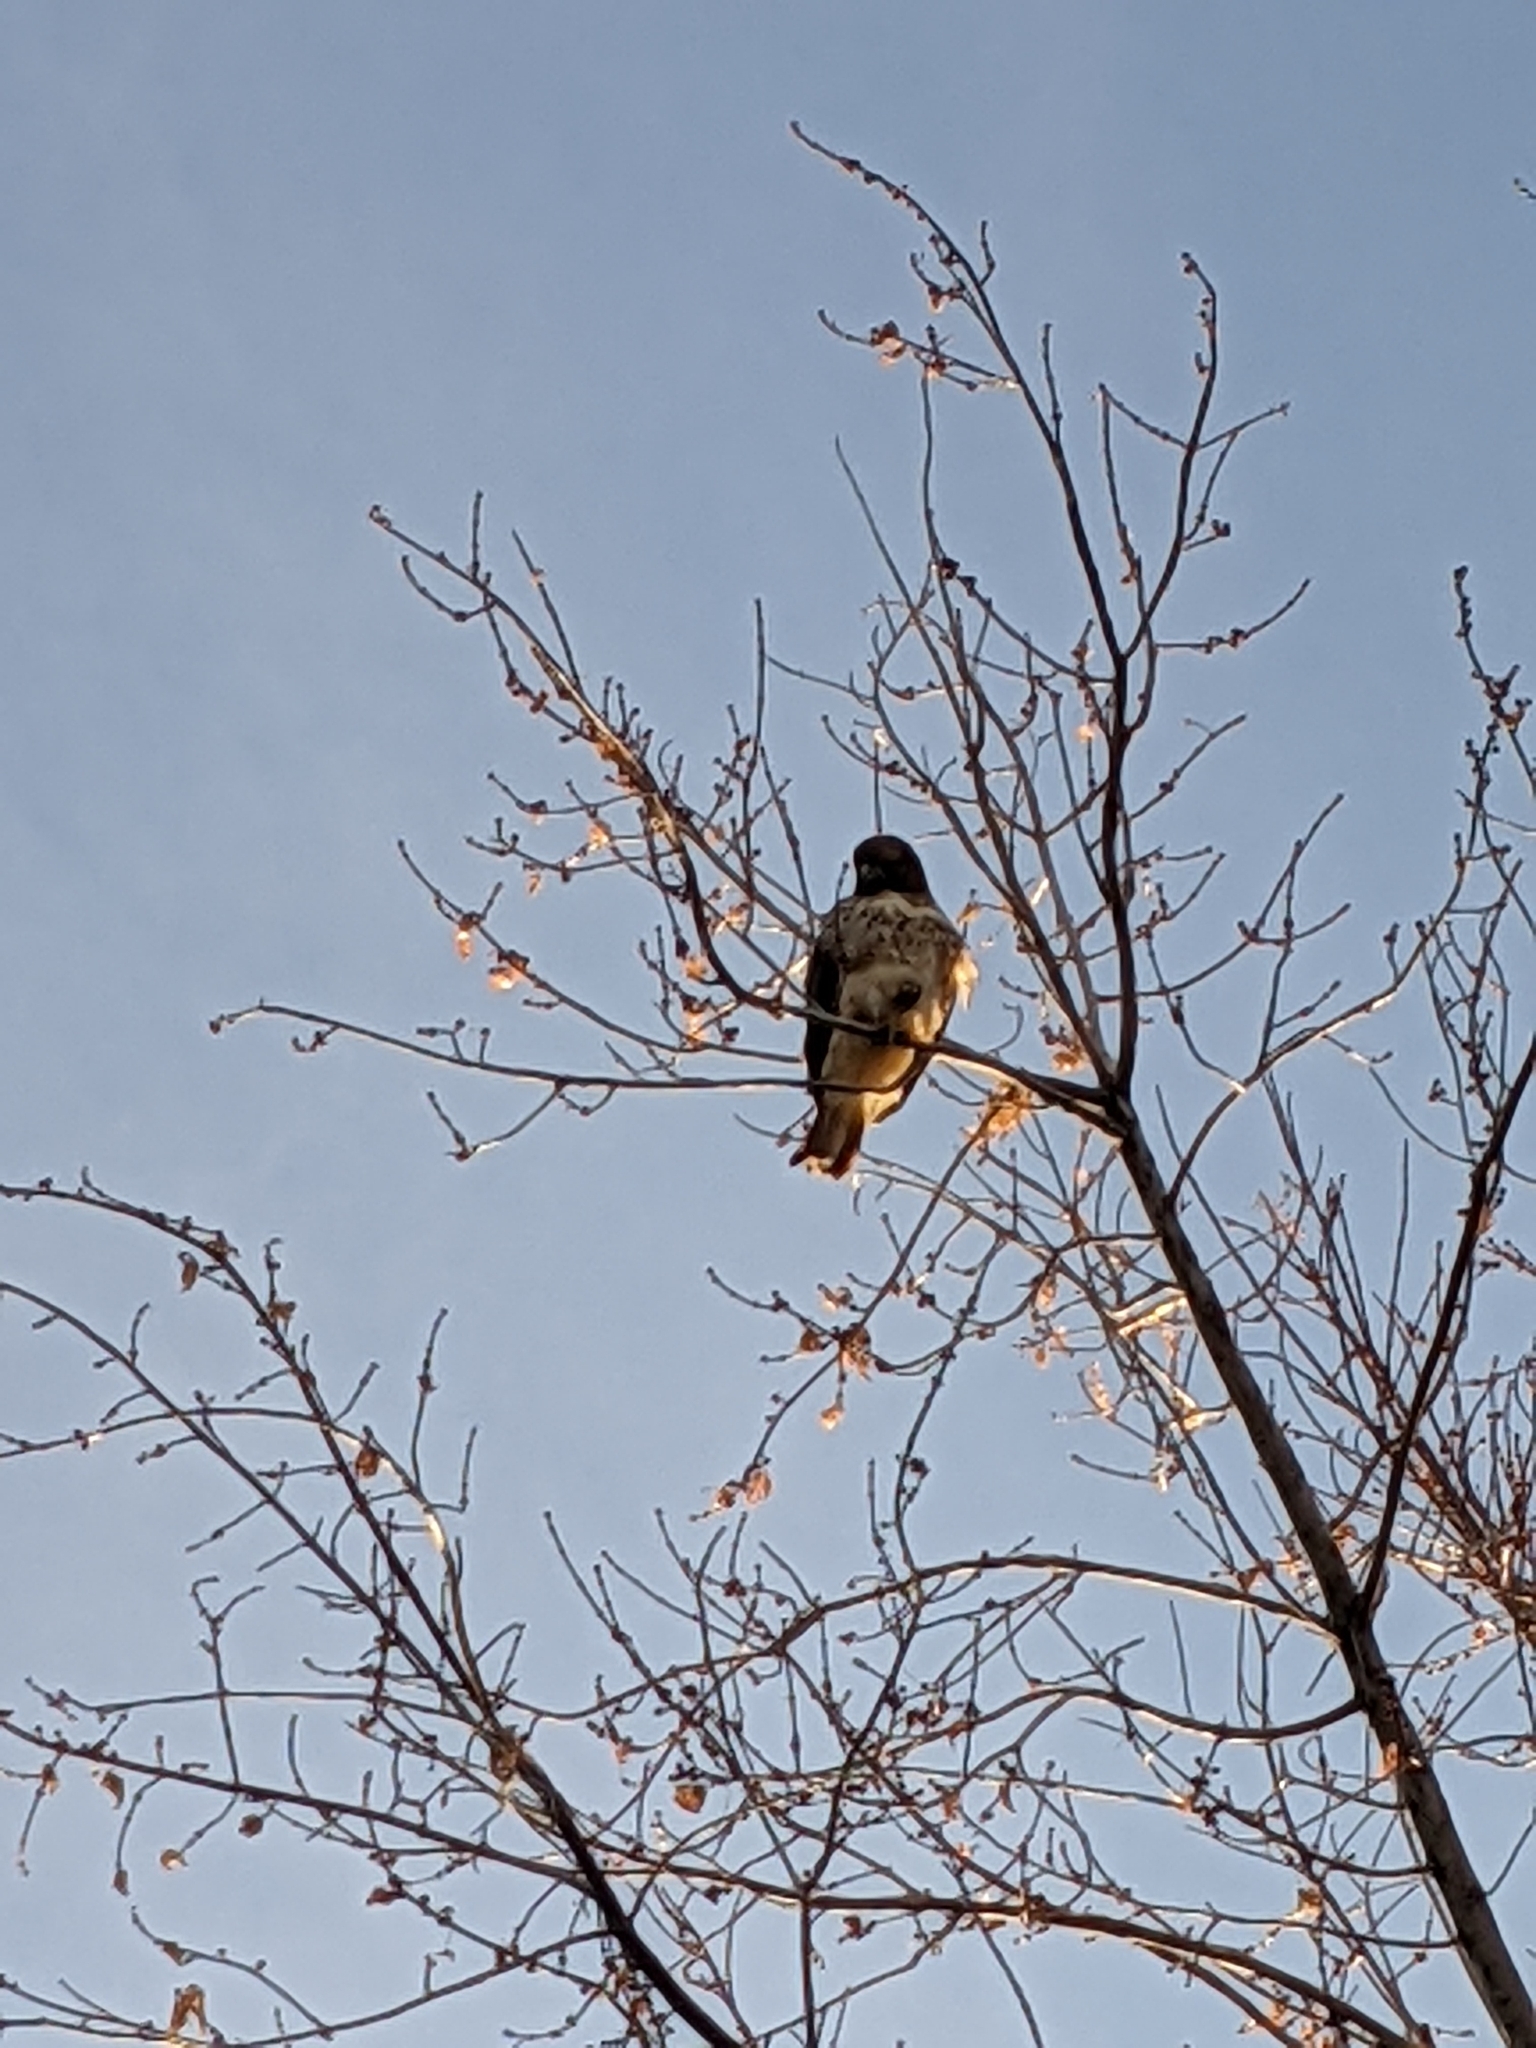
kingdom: Animalia
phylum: Chordata
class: Aves
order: Accipitriformes
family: Accipitridae
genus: Buteo
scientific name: Buteo jamaicensis
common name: Red-tailed hawk
